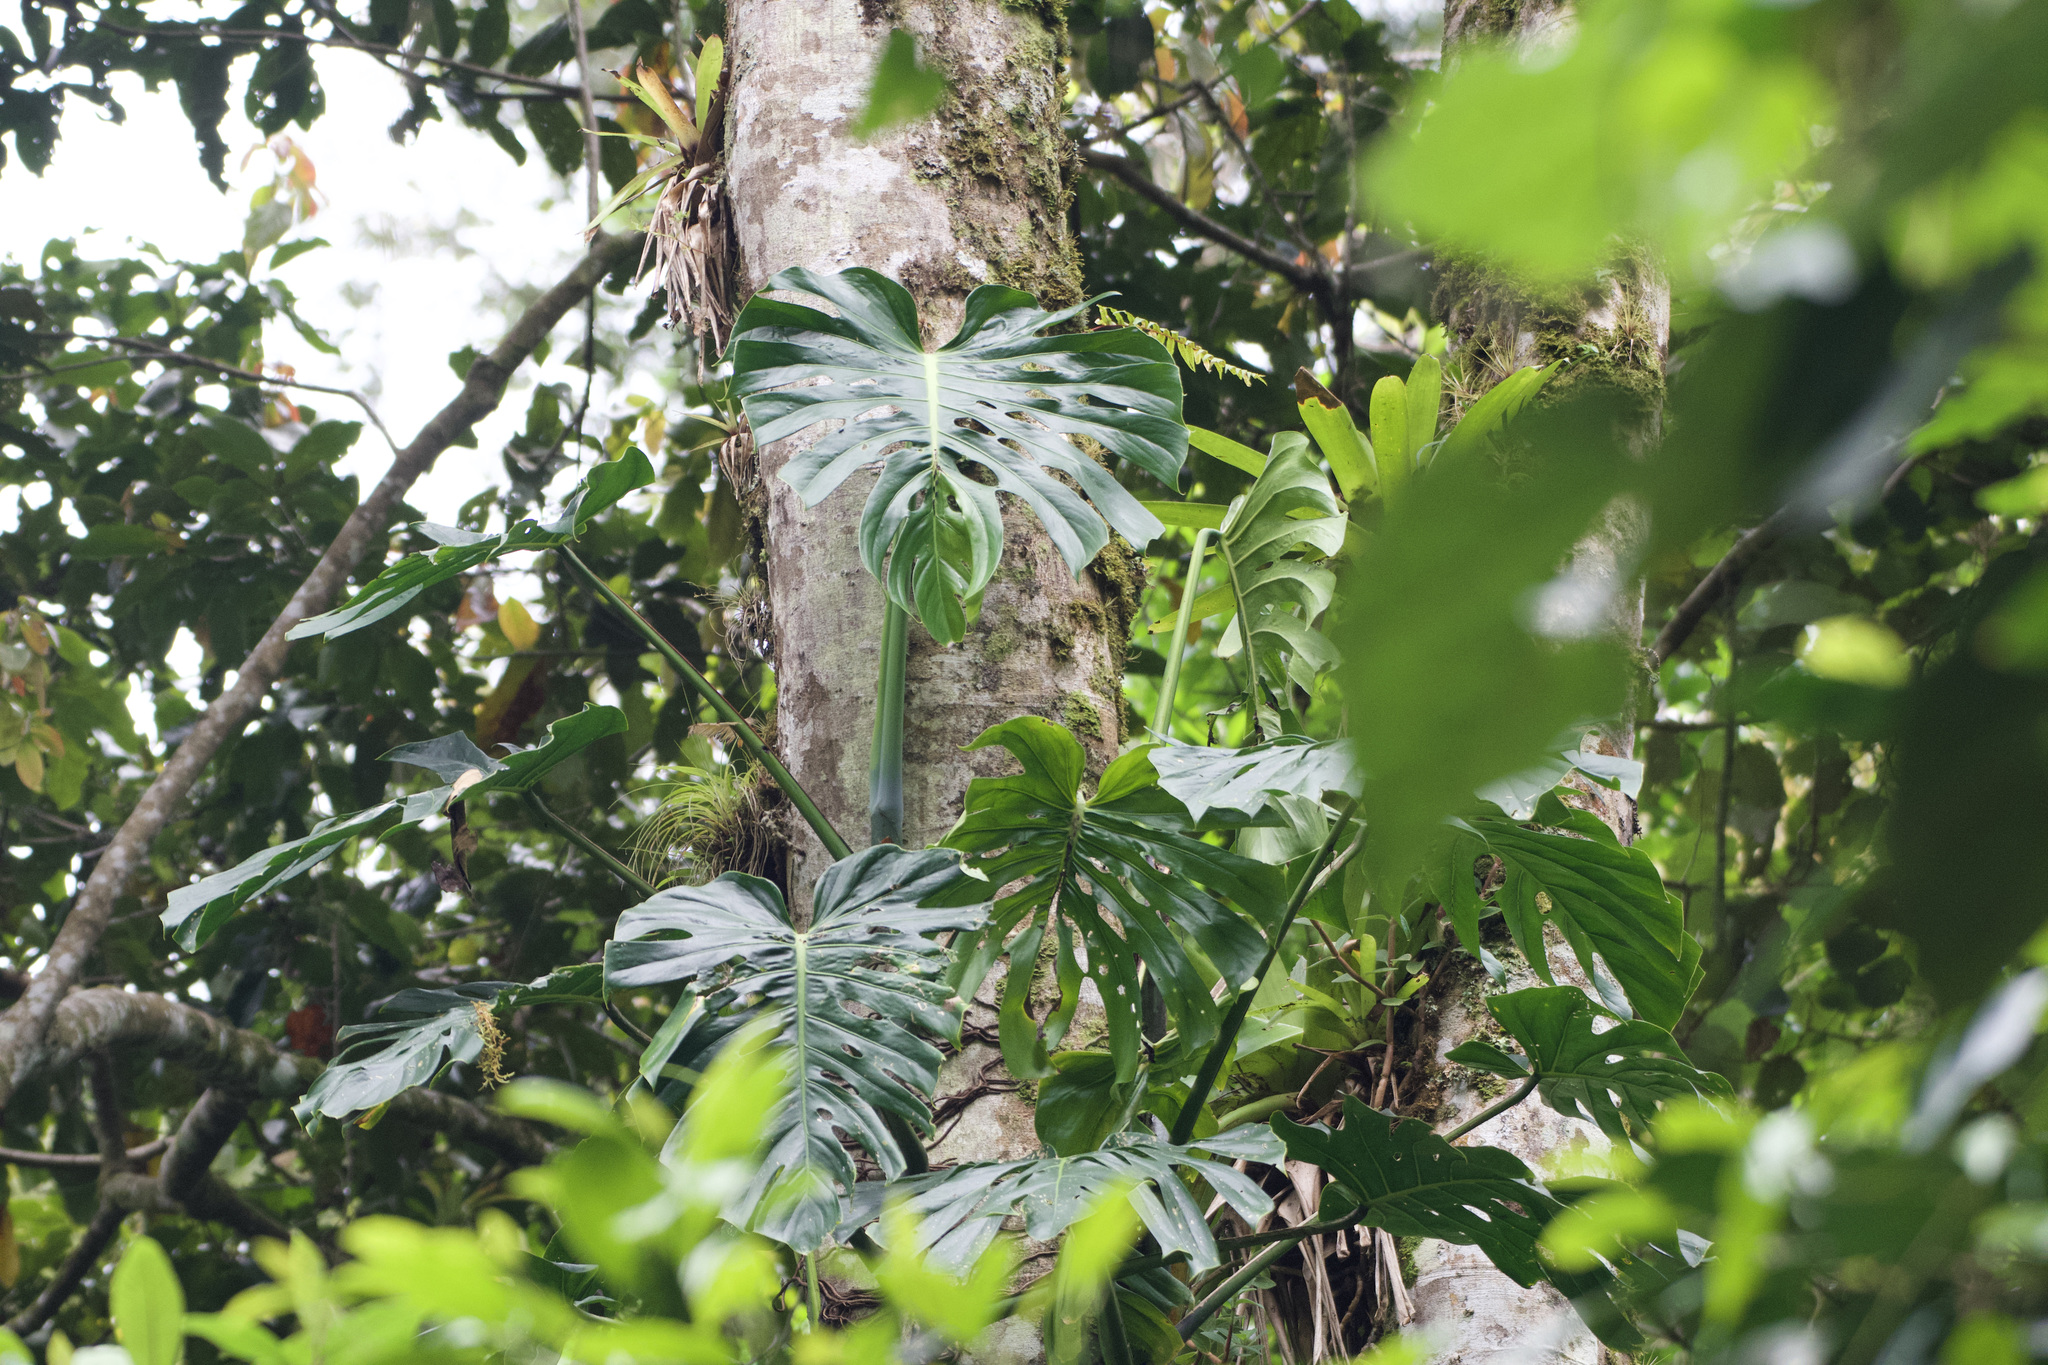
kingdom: Plantae
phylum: Tracheophyta
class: Liliopsida
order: Alismatales
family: Araceae
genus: Monstera
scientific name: Monstera tacanaensis
